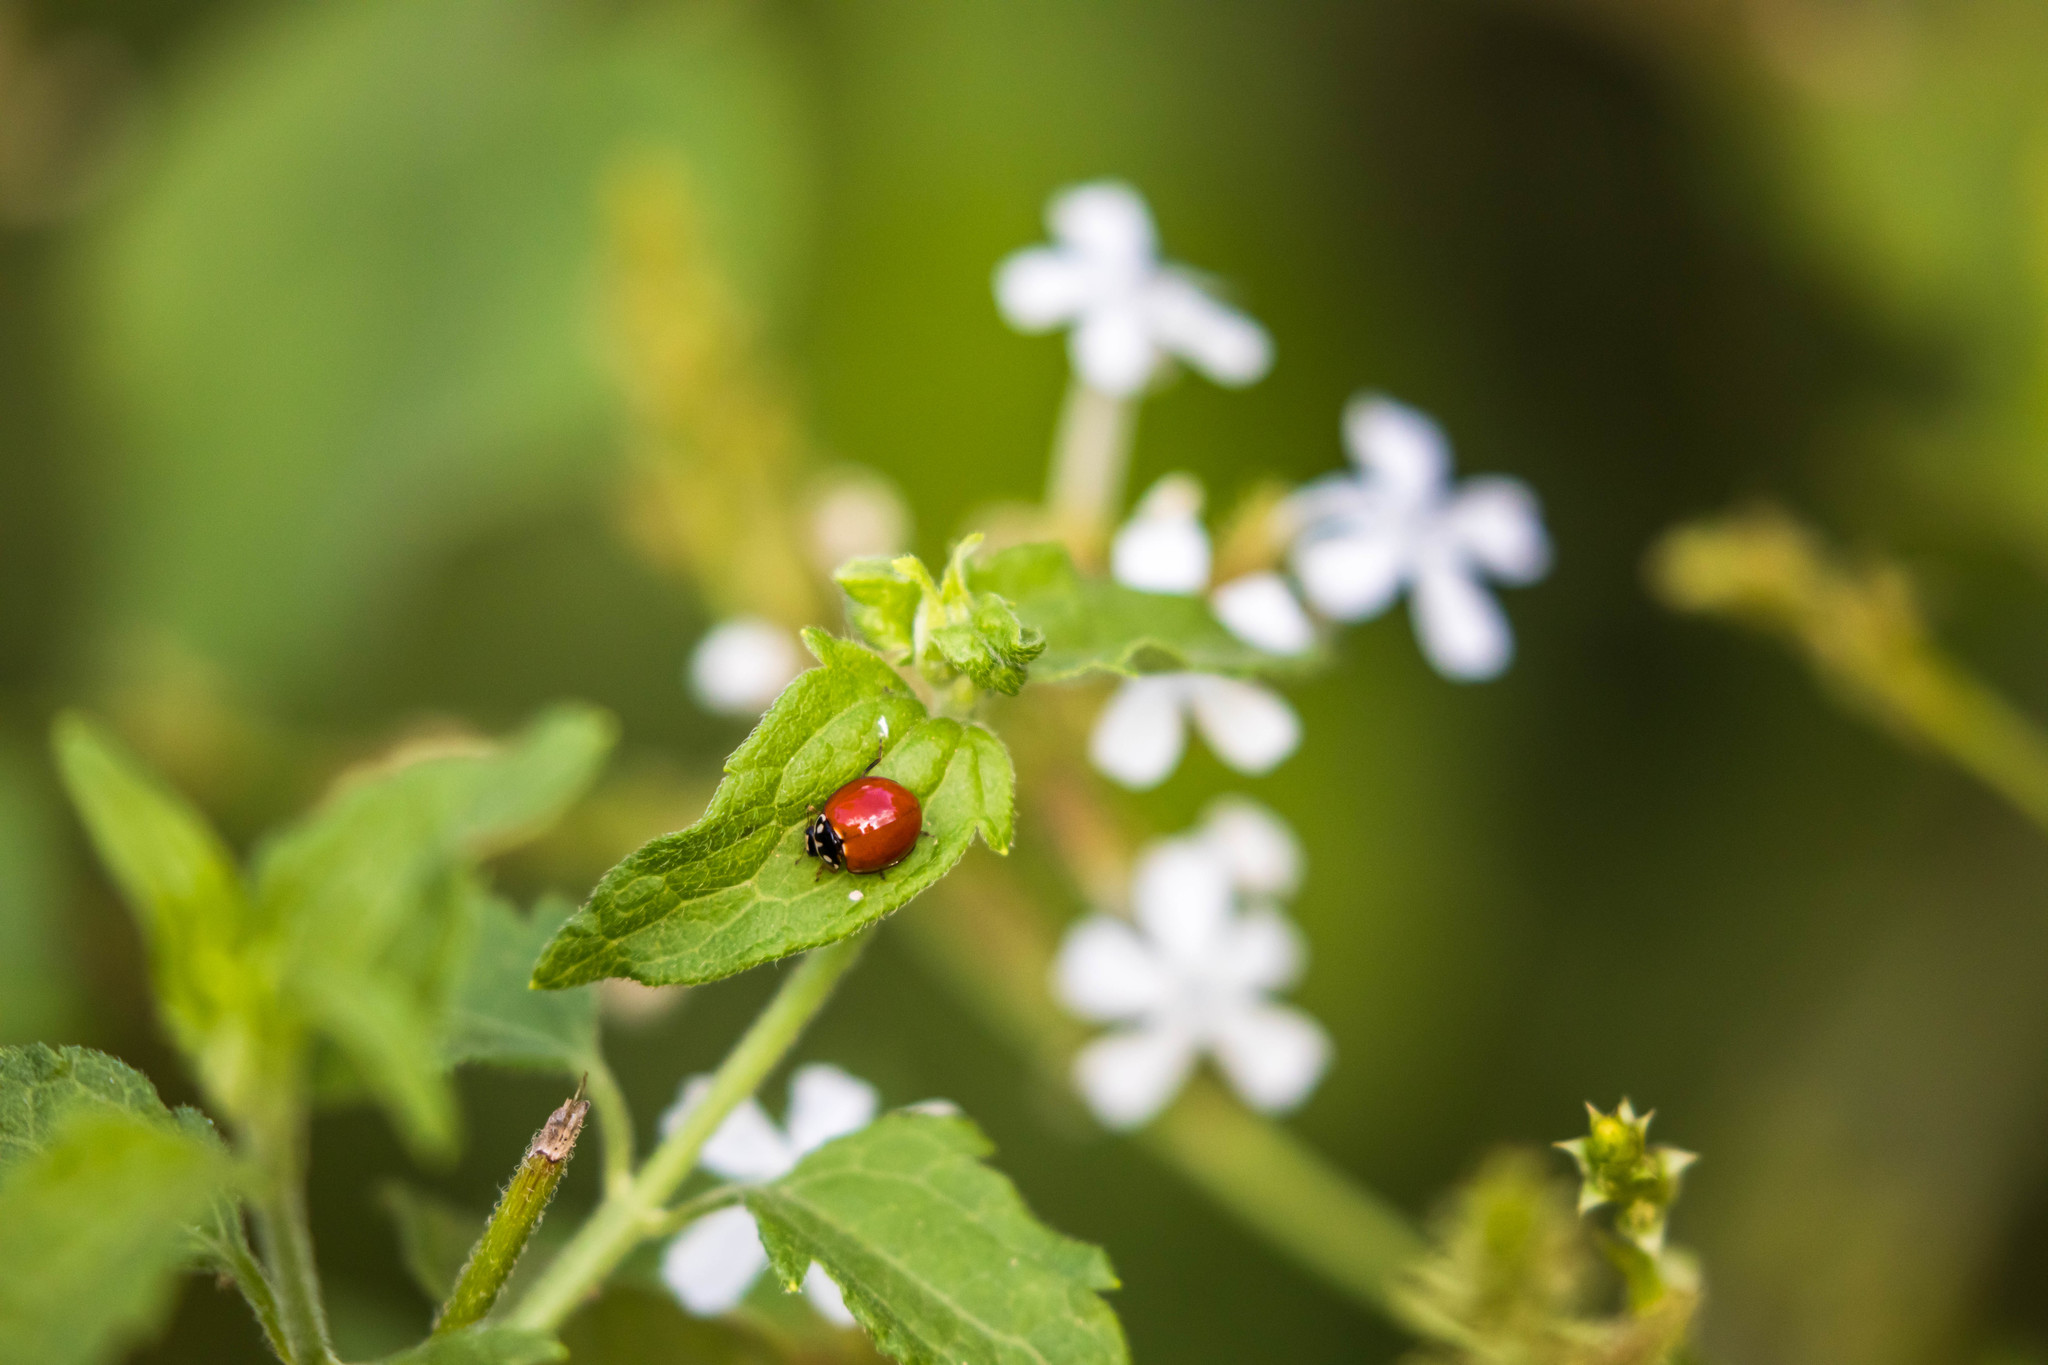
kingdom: Animalia
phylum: Arthropoda
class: Insecta
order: Coleoptera
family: Coccinellidae
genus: Cycloneda
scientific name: Cycloneda sanguinea
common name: Ladybird beetle
